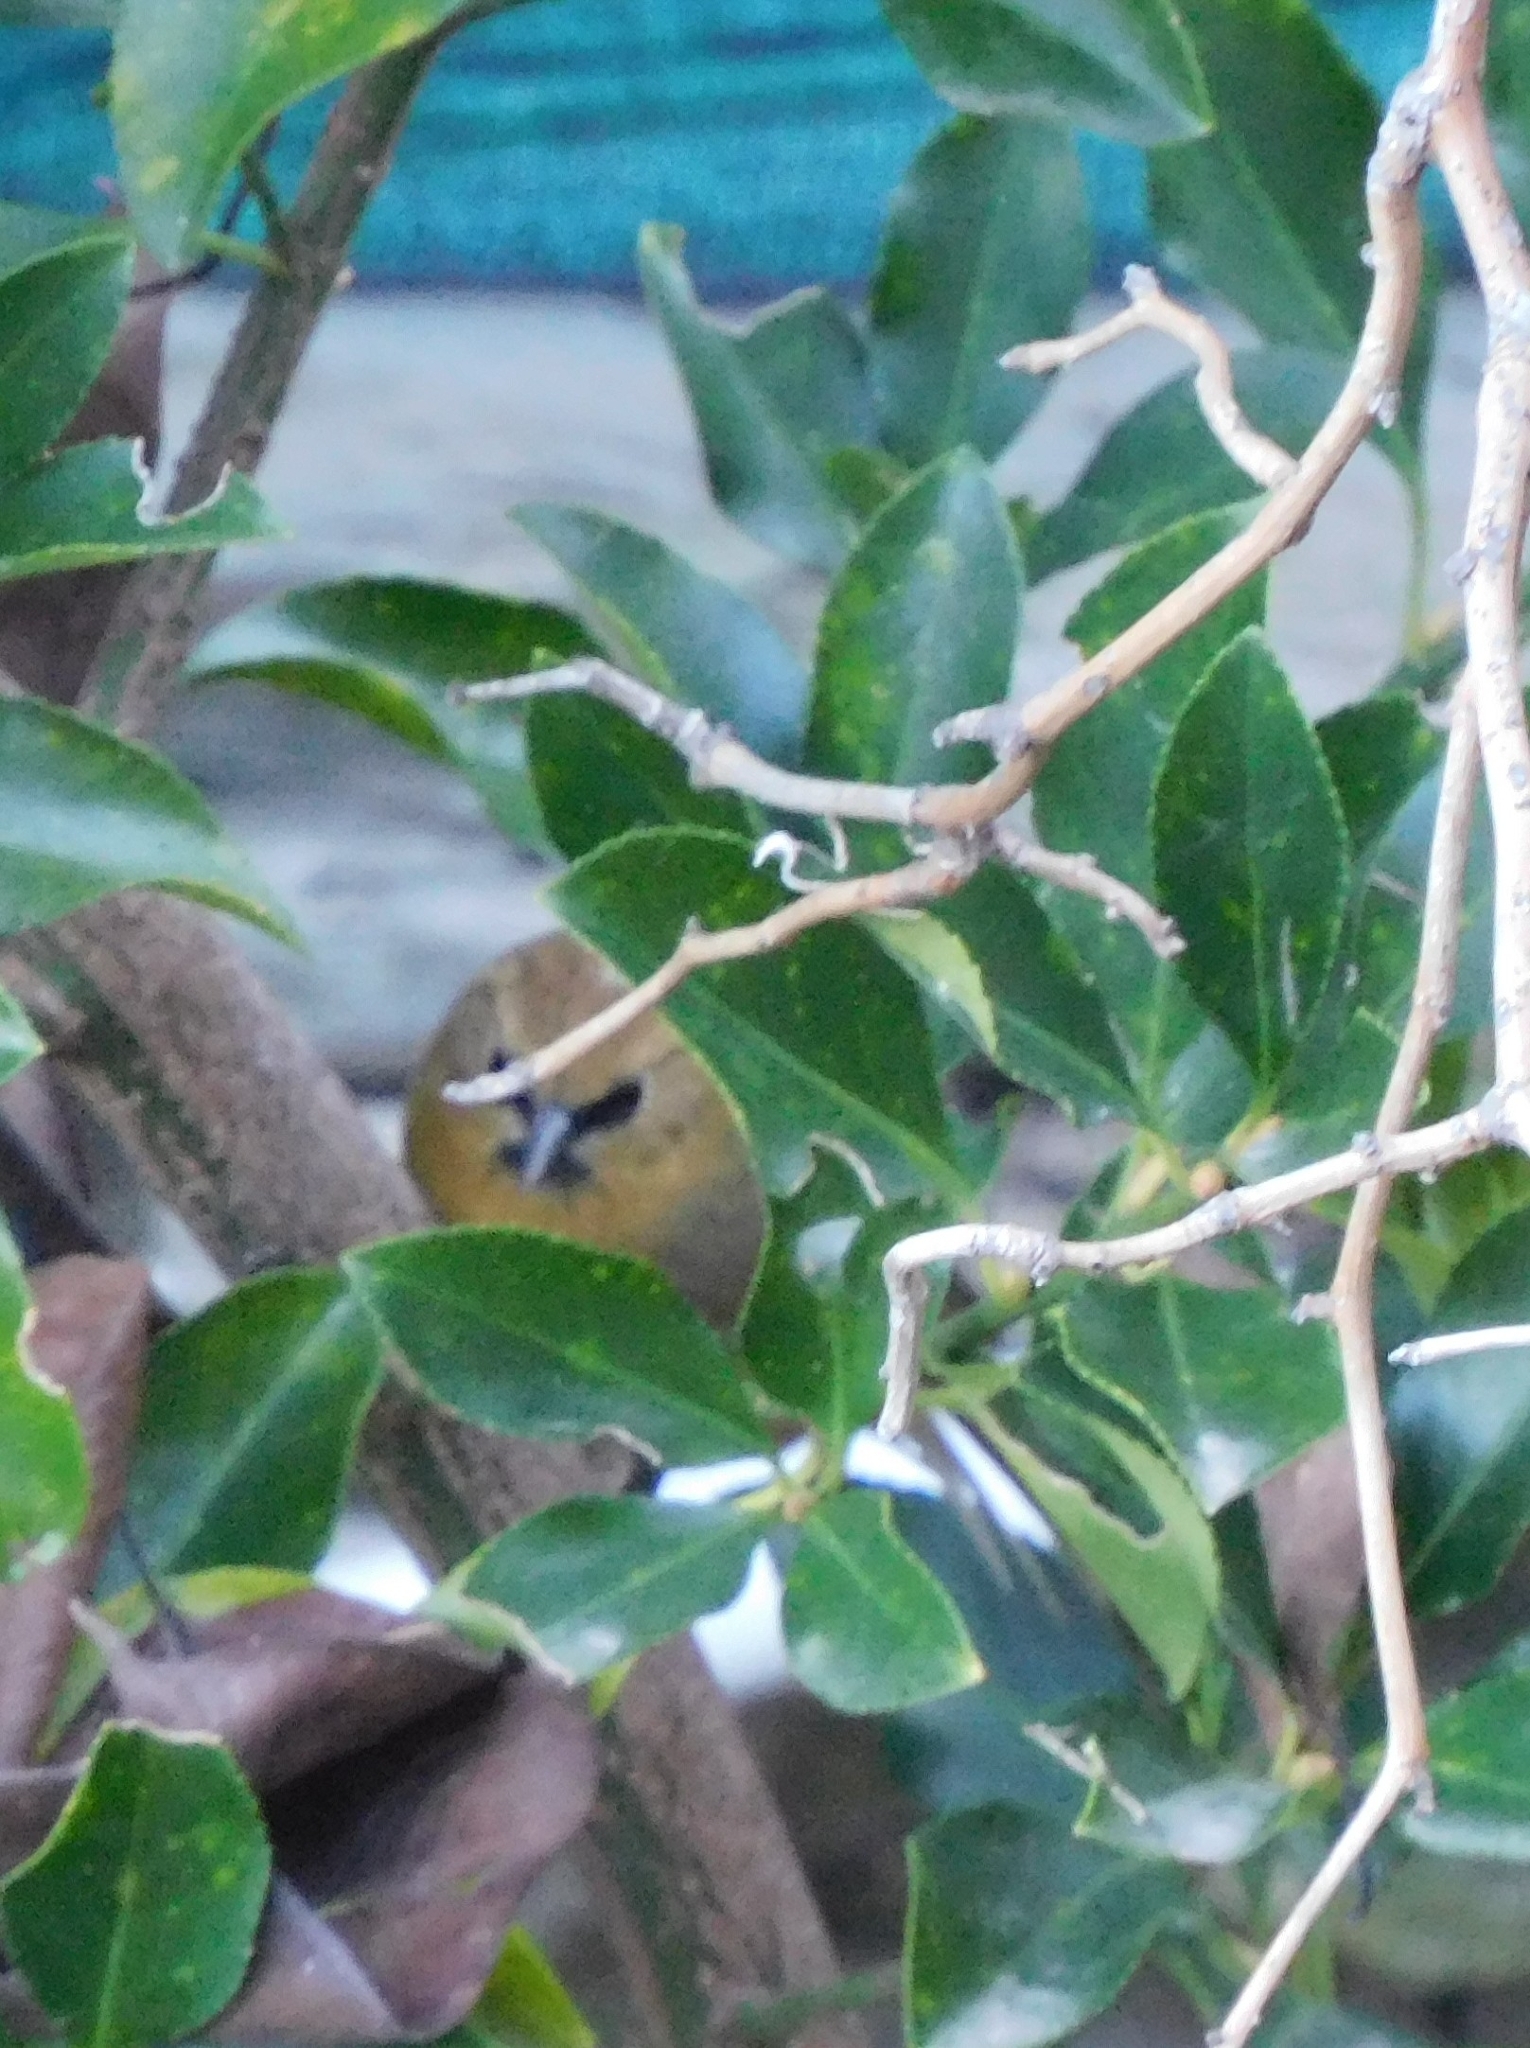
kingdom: Animalia
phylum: Chordata
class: Aves
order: Passeriformes
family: Timaliidae
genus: Stachyridopsis
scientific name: Stachyridopsis pyrrhops
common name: Black-chinned babbler
